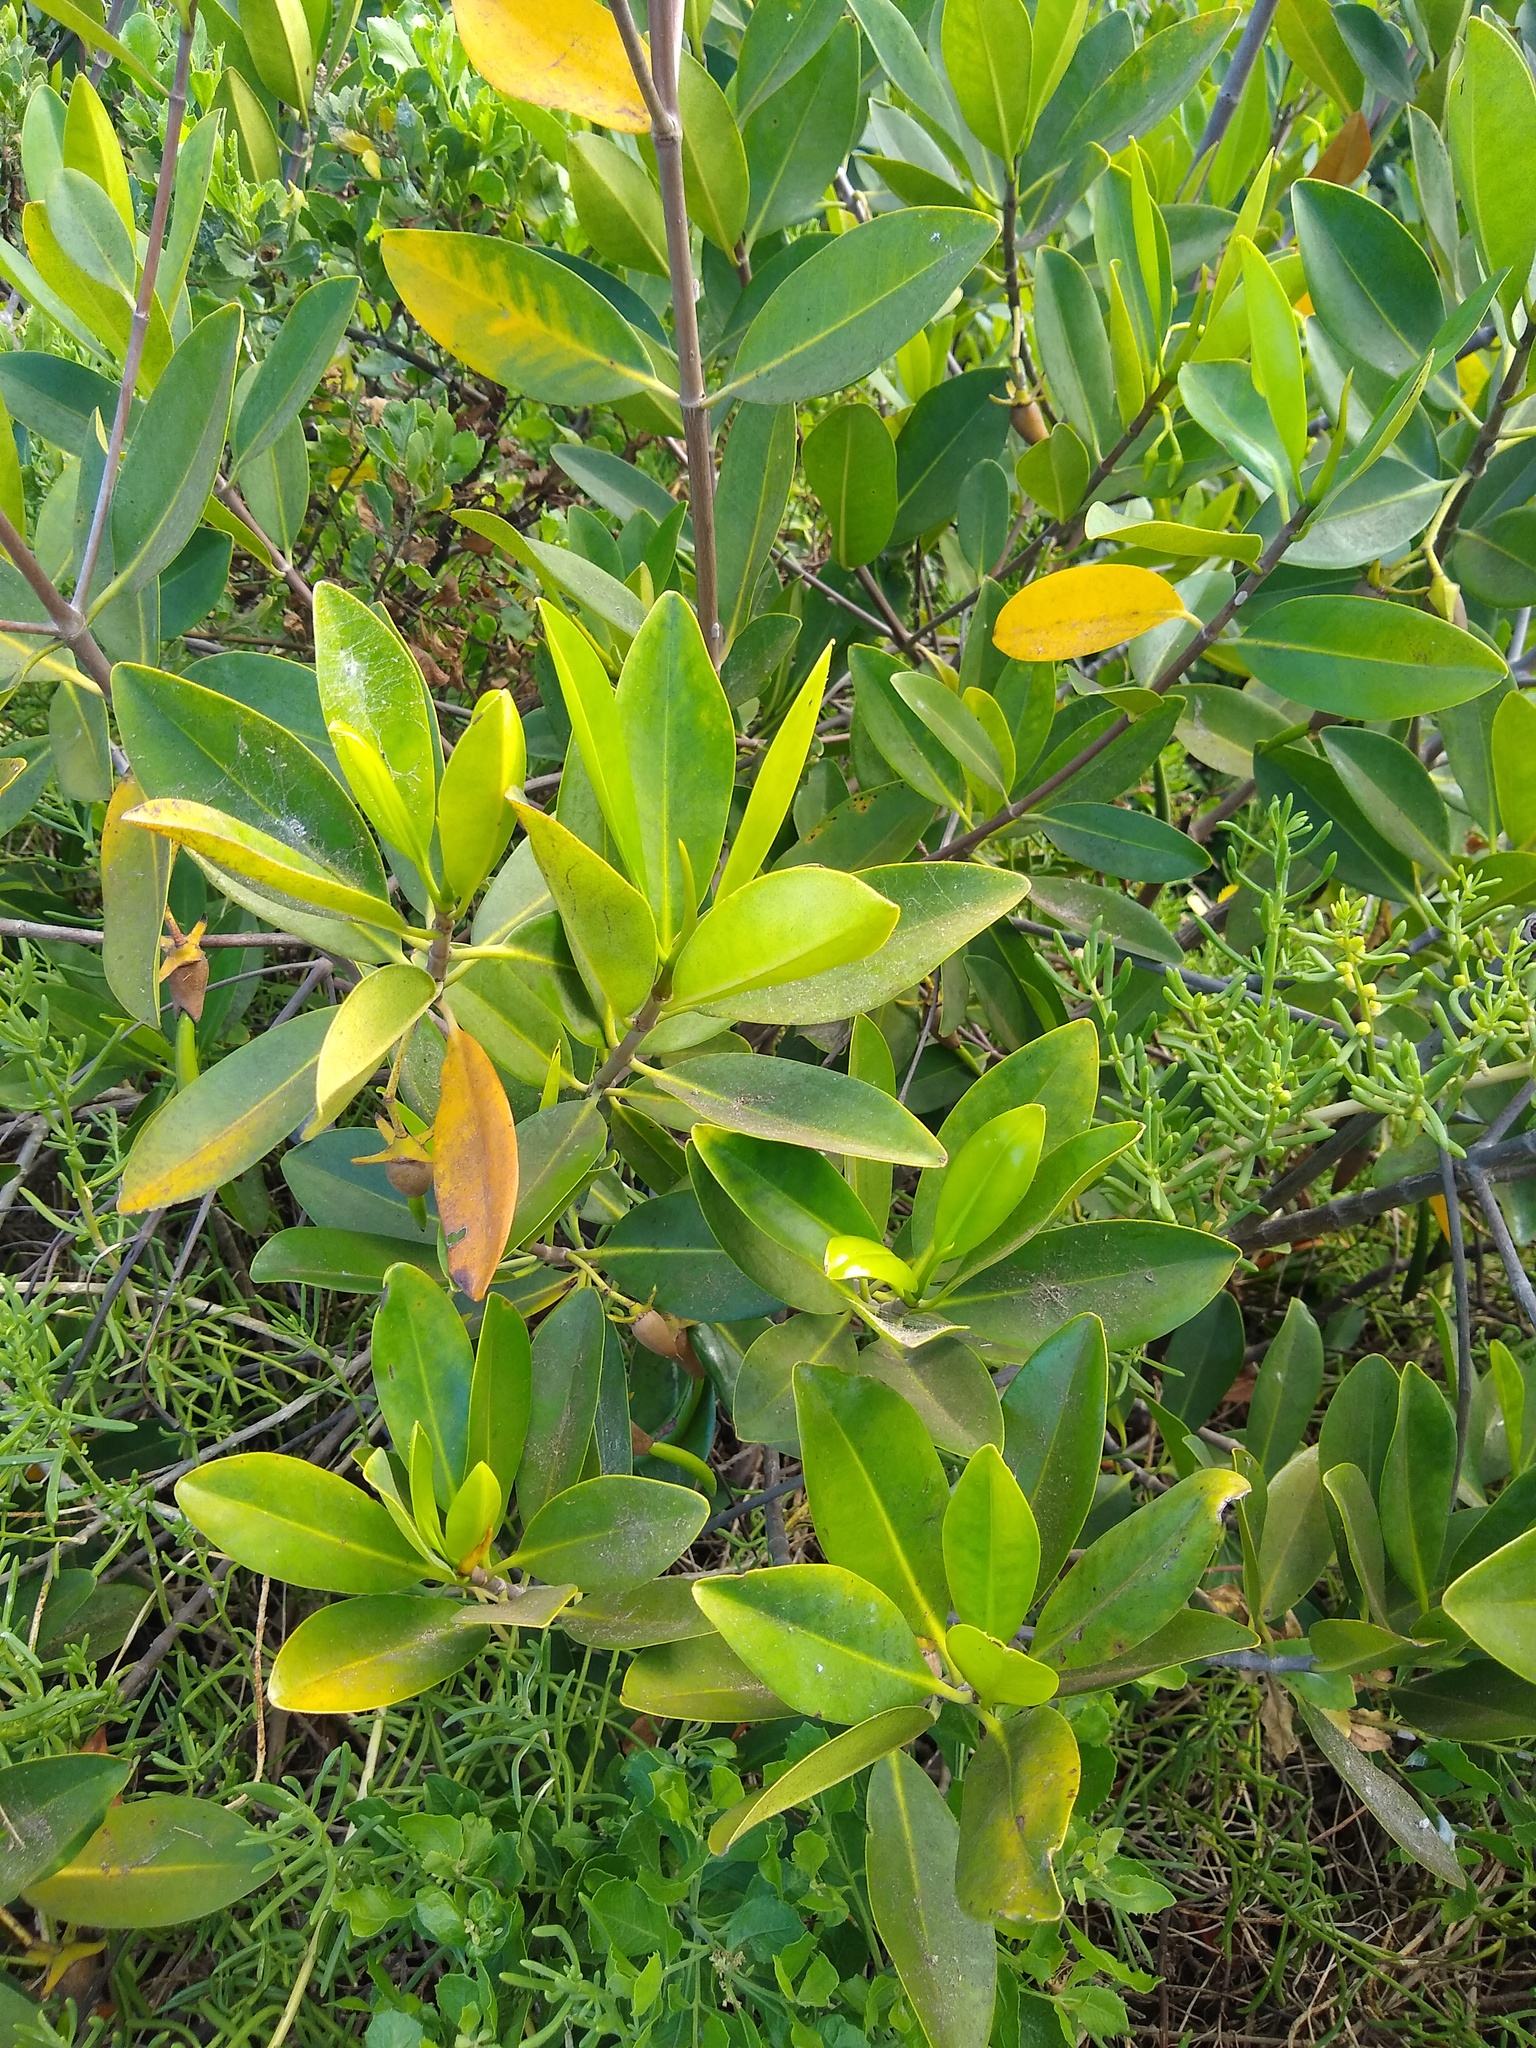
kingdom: Plantae
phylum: Tracheophyta
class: Magnoliopsida
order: Malpighiales
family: Rhizophoraceae
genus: Rhizophora
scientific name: Rhizophora mangle
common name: Red mangrove
